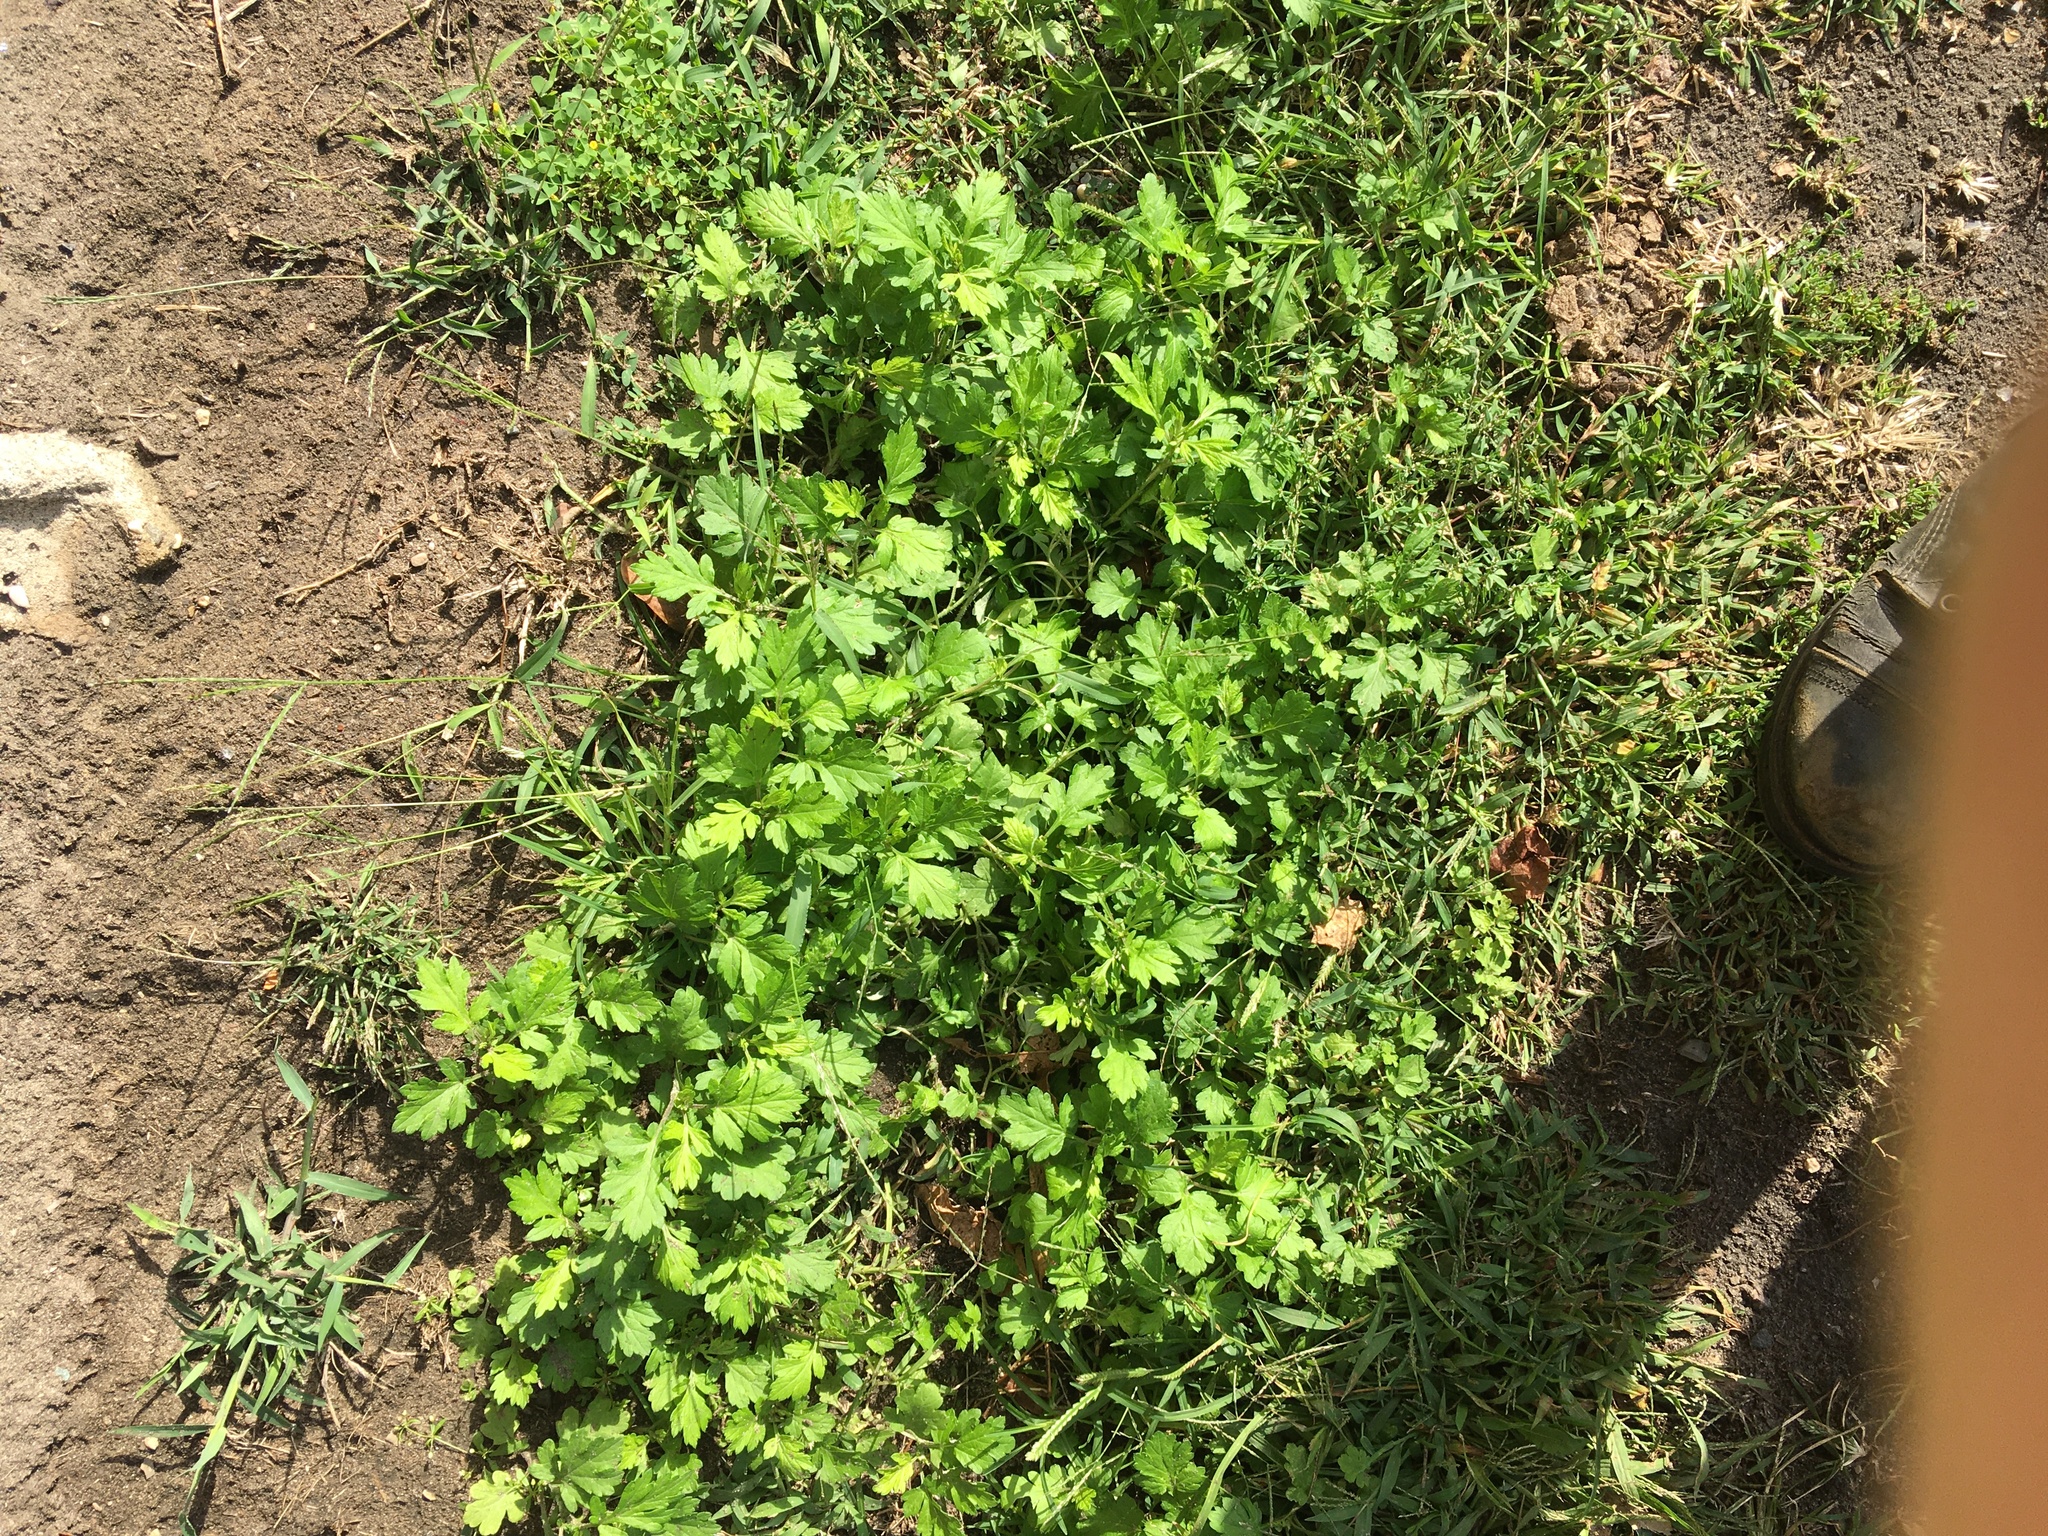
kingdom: Plantae
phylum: Tracheophyta
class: Magnoliopsida
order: Asterales
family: Asteraceae
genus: Artemisia
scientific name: Artemisia vulgaris
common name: Mugwort
